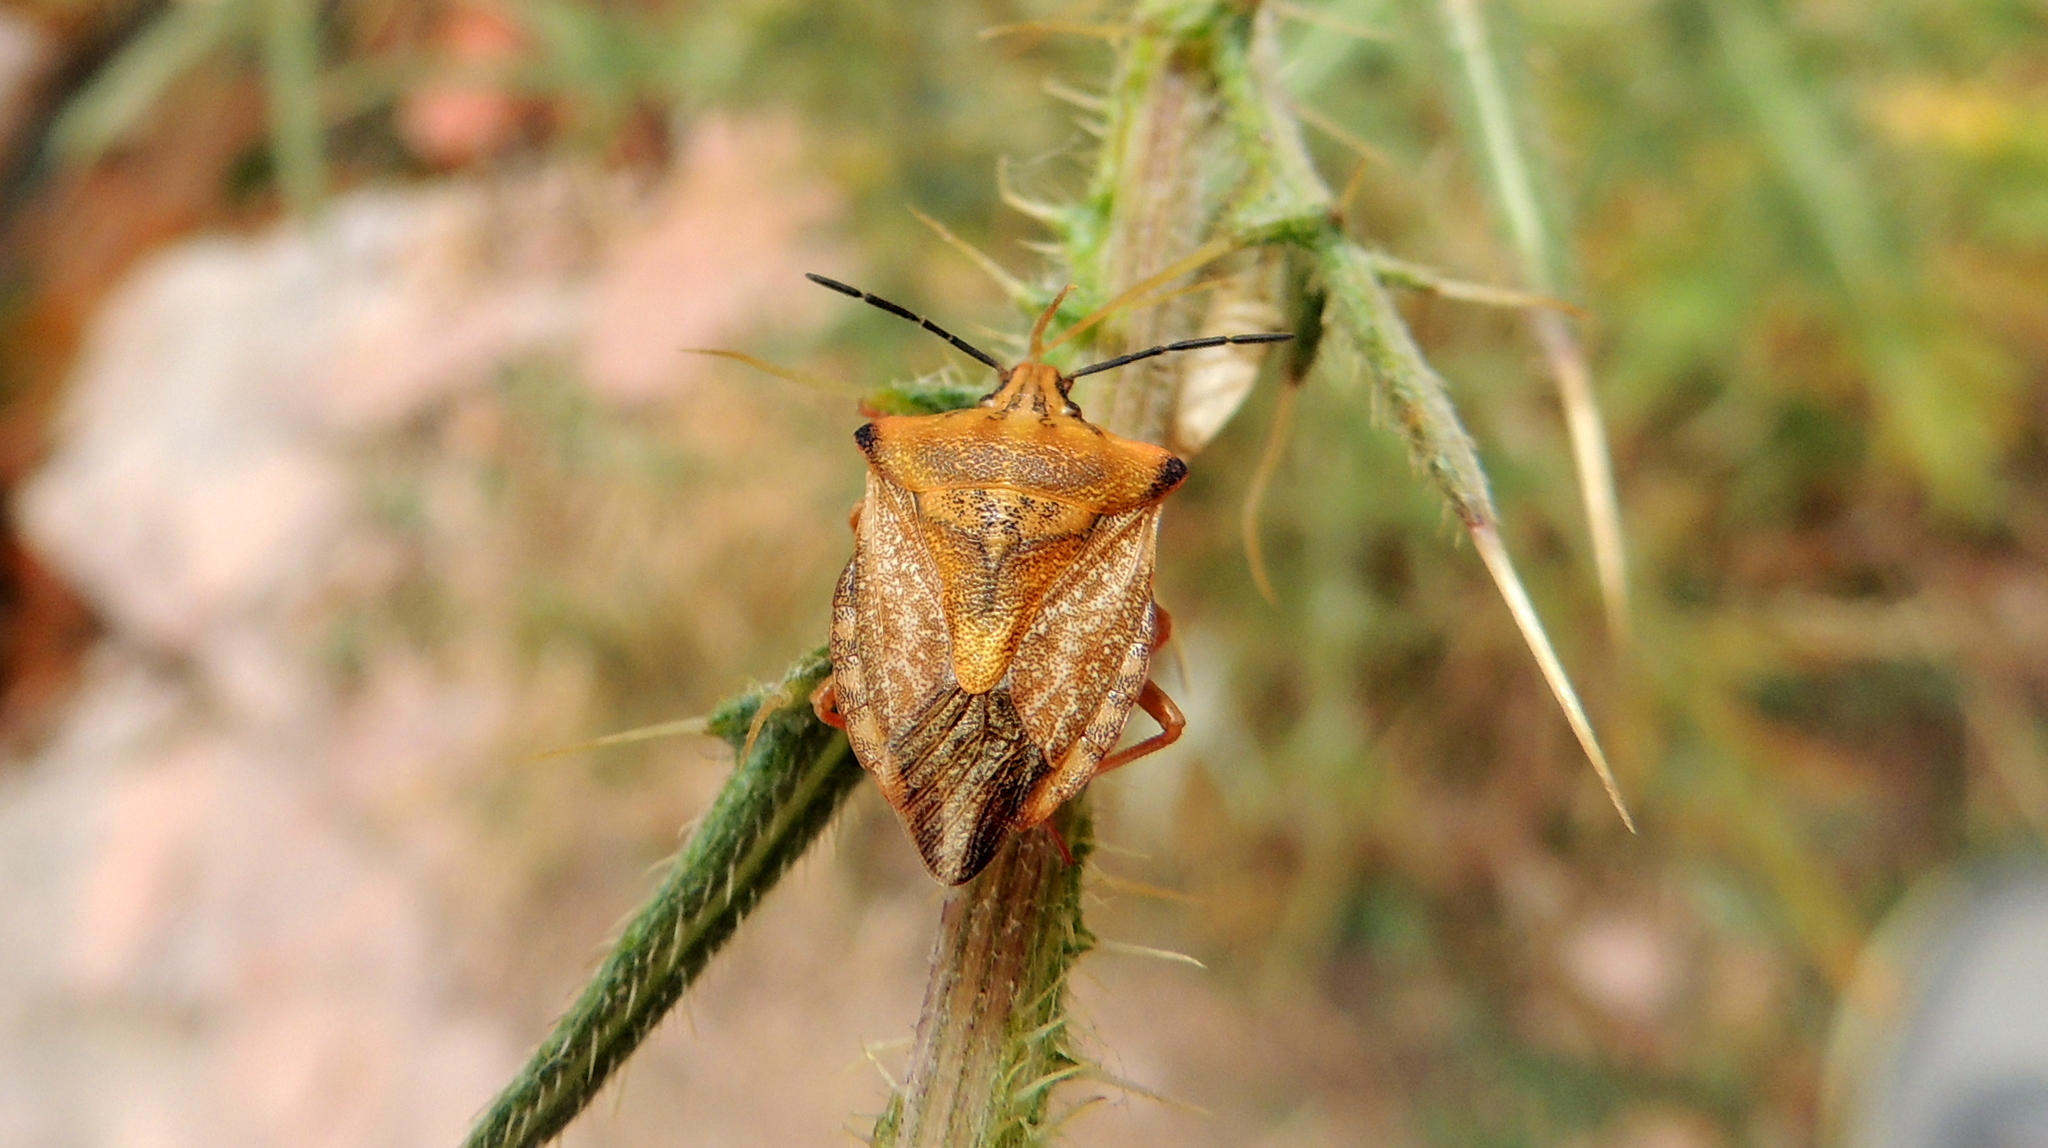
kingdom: Animalia
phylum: Arthropoda
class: Insecta
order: Hemiptera
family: Pentatomidae
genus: Carpocoris
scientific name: Carpocoris coreanus
